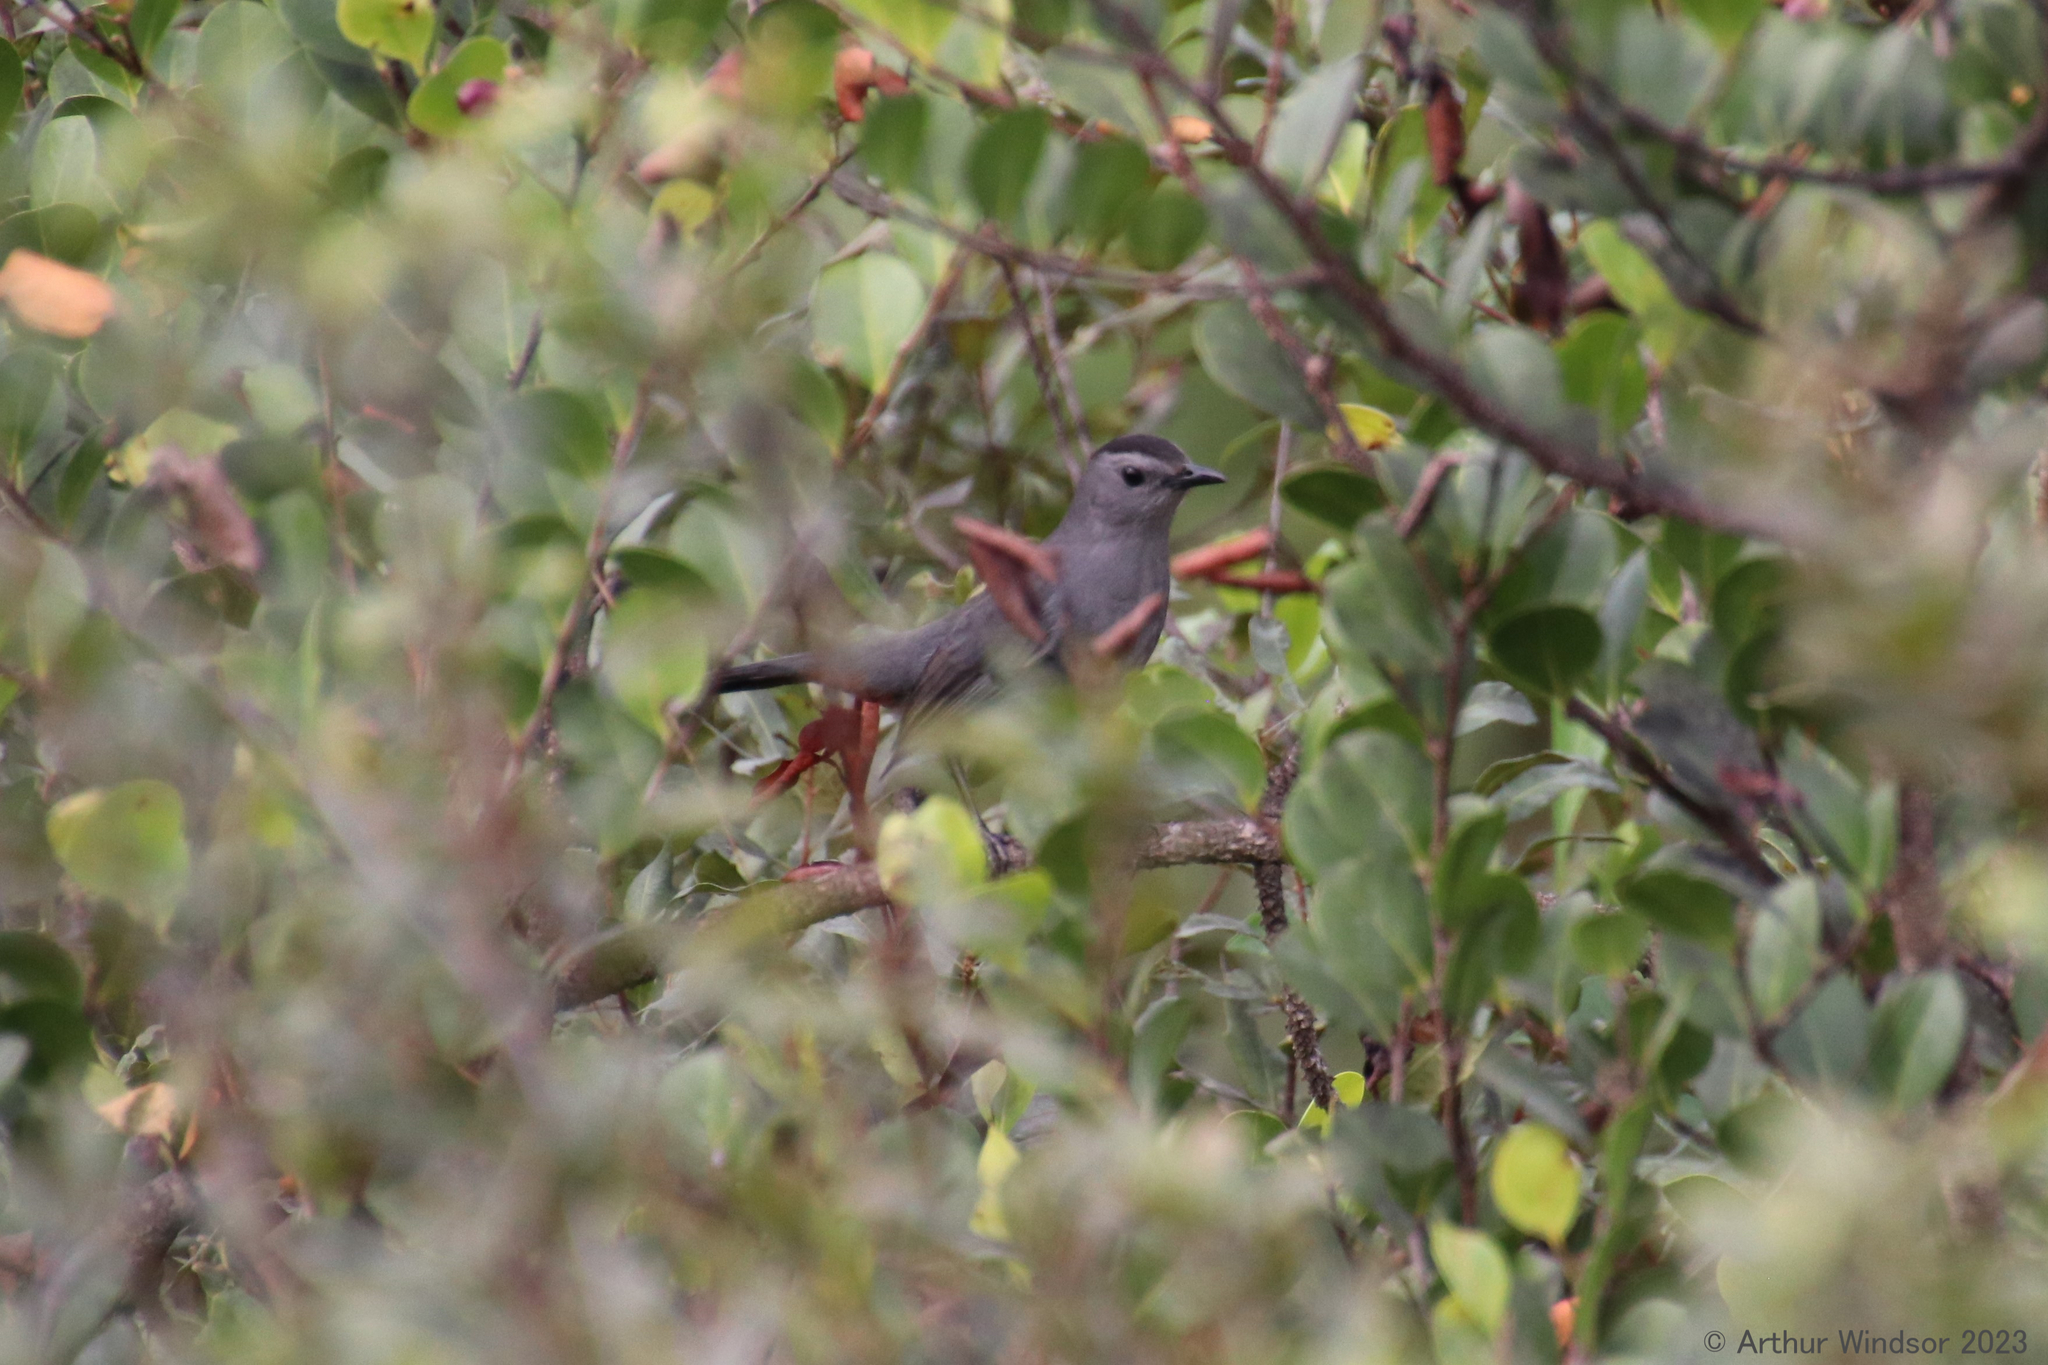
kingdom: Animalia
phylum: Chordata
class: Aves
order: Passeriformes
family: Mimidae
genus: Dumetella
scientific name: Dumetella carolinensis
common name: Gray catbird
